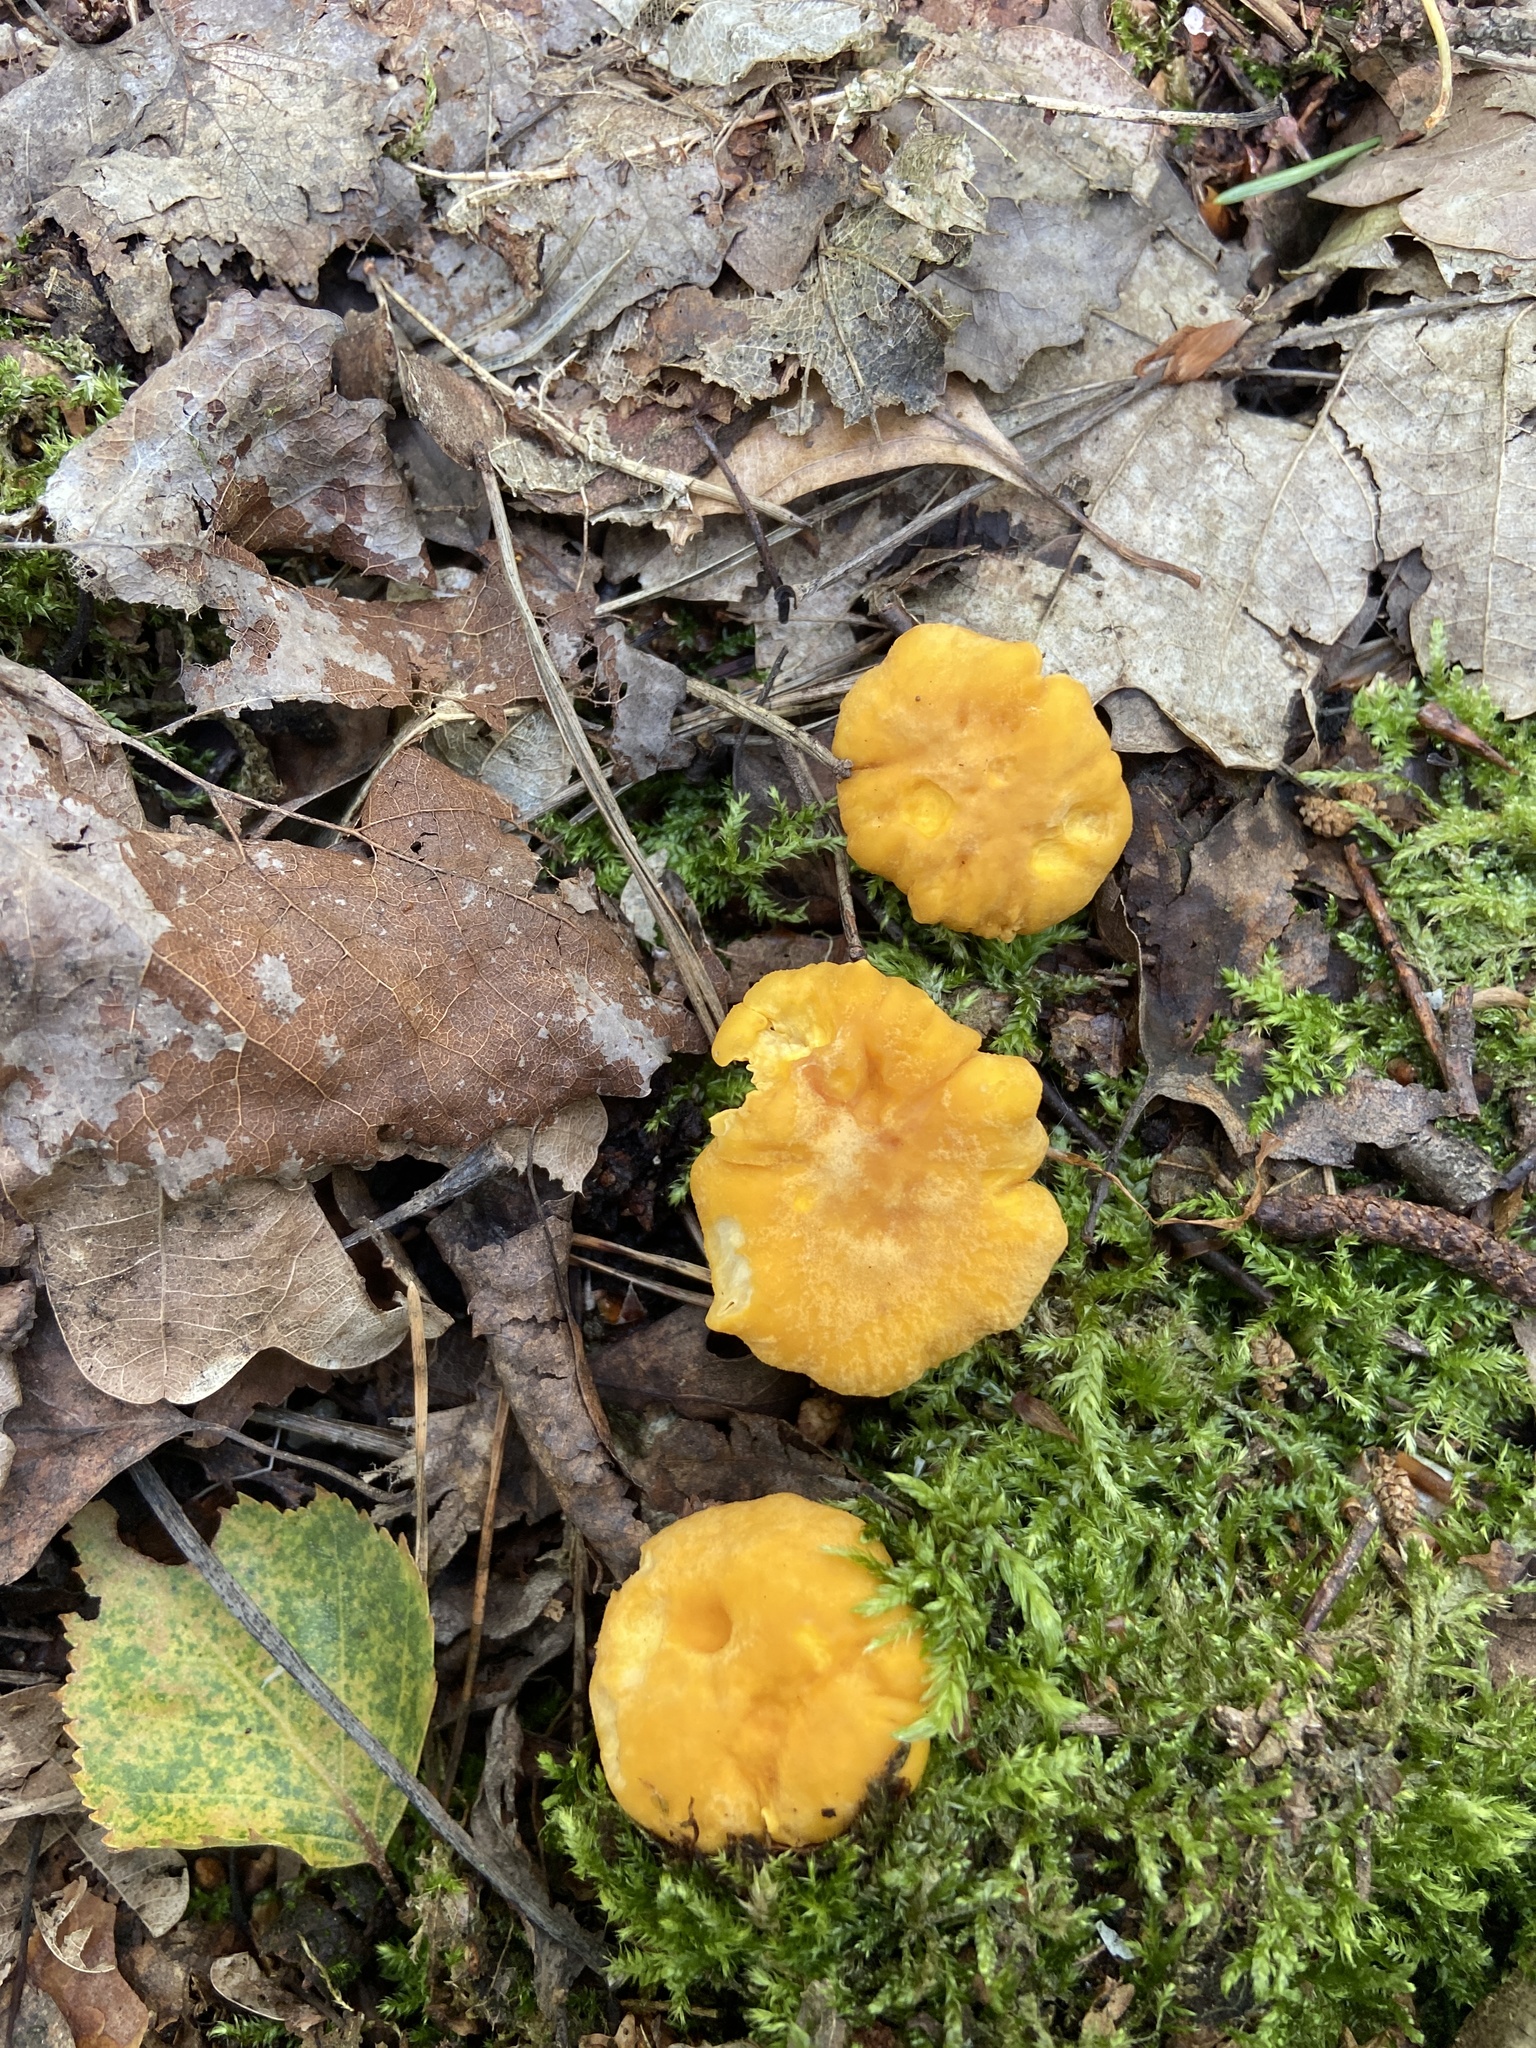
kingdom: Fungi
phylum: Basidiomycota
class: Agaricomycetes
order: Cantharellales
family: Hydnaceae
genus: Cantharellus
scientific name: Cantharellus cibarius
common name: Chanterelle
